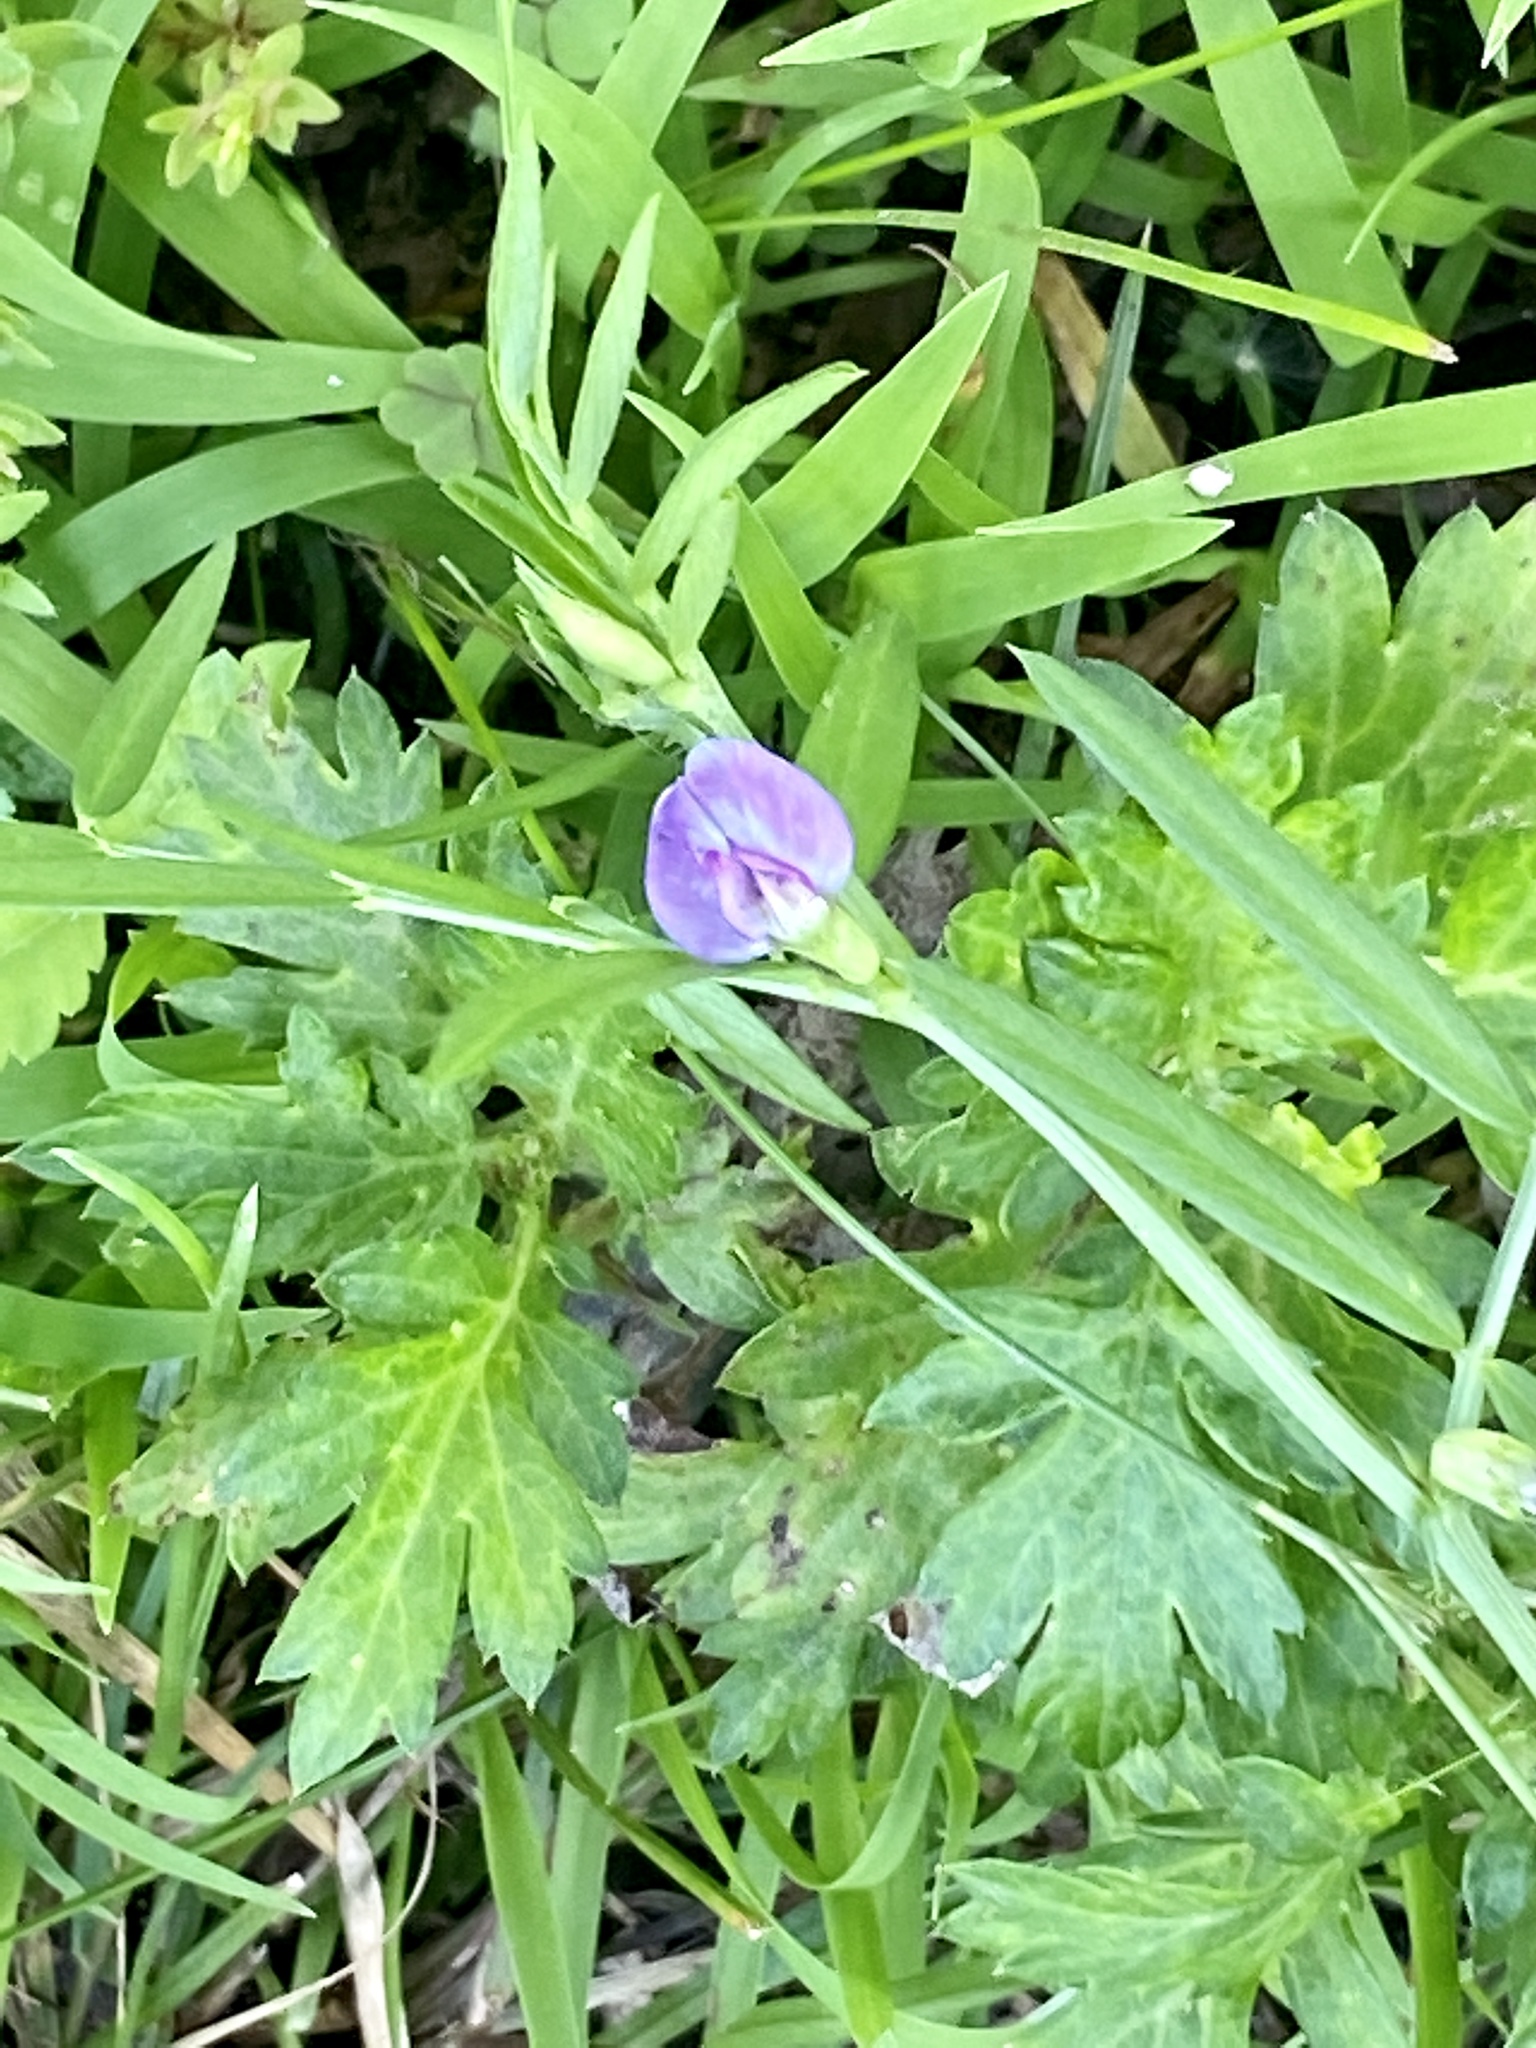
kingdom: Plantae
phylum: Tracheophyta
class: Magnoliopsida
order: Fabales
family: Fabaceae
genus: Vicia
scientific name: Vicia sativa
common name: Garden vetch
